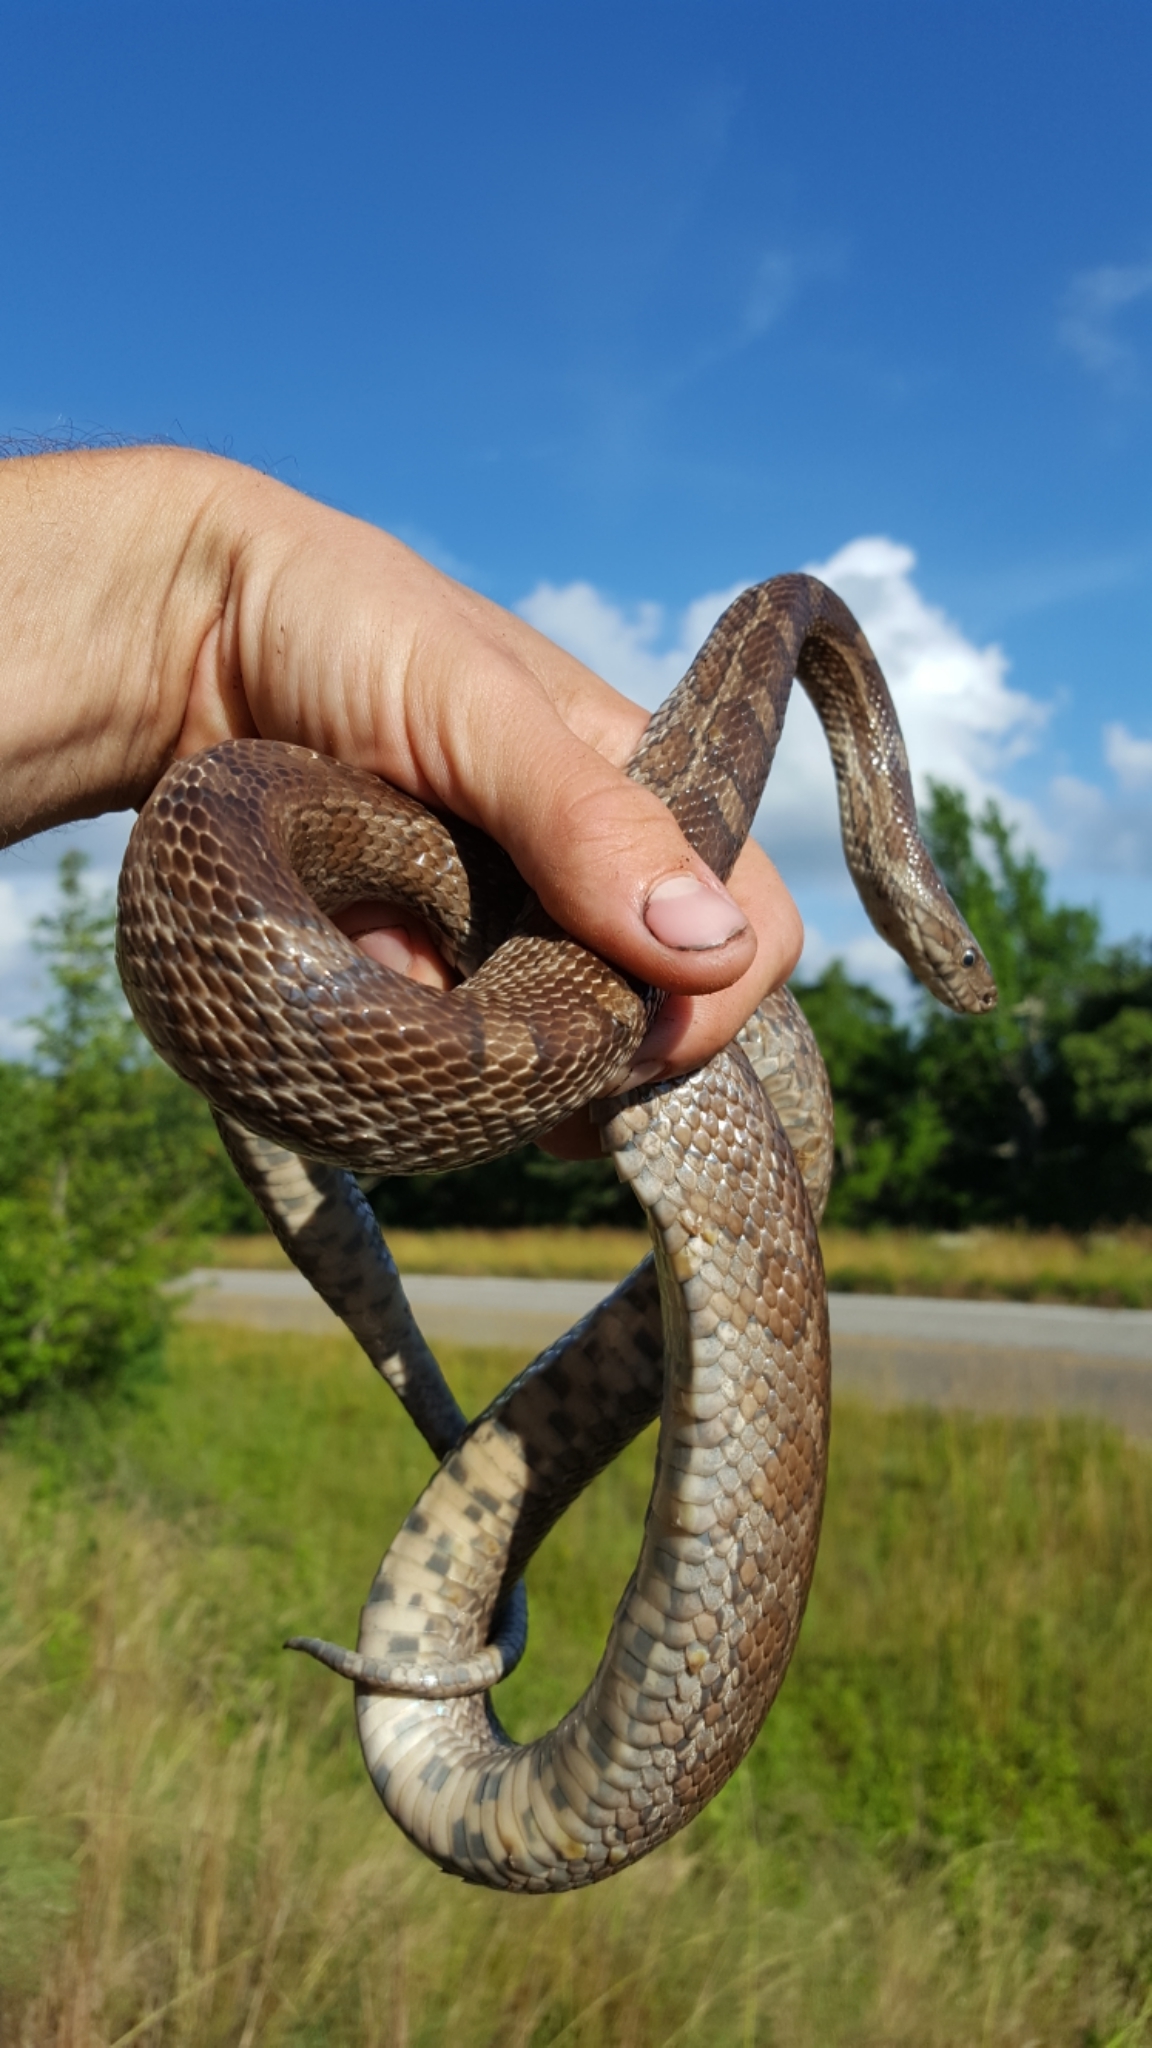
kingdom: Animalia
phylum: Chordata
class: Squamata
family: Colubridae
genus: Pantherophis
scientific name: Pantherophis emoryi
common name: Great plains rat snake
